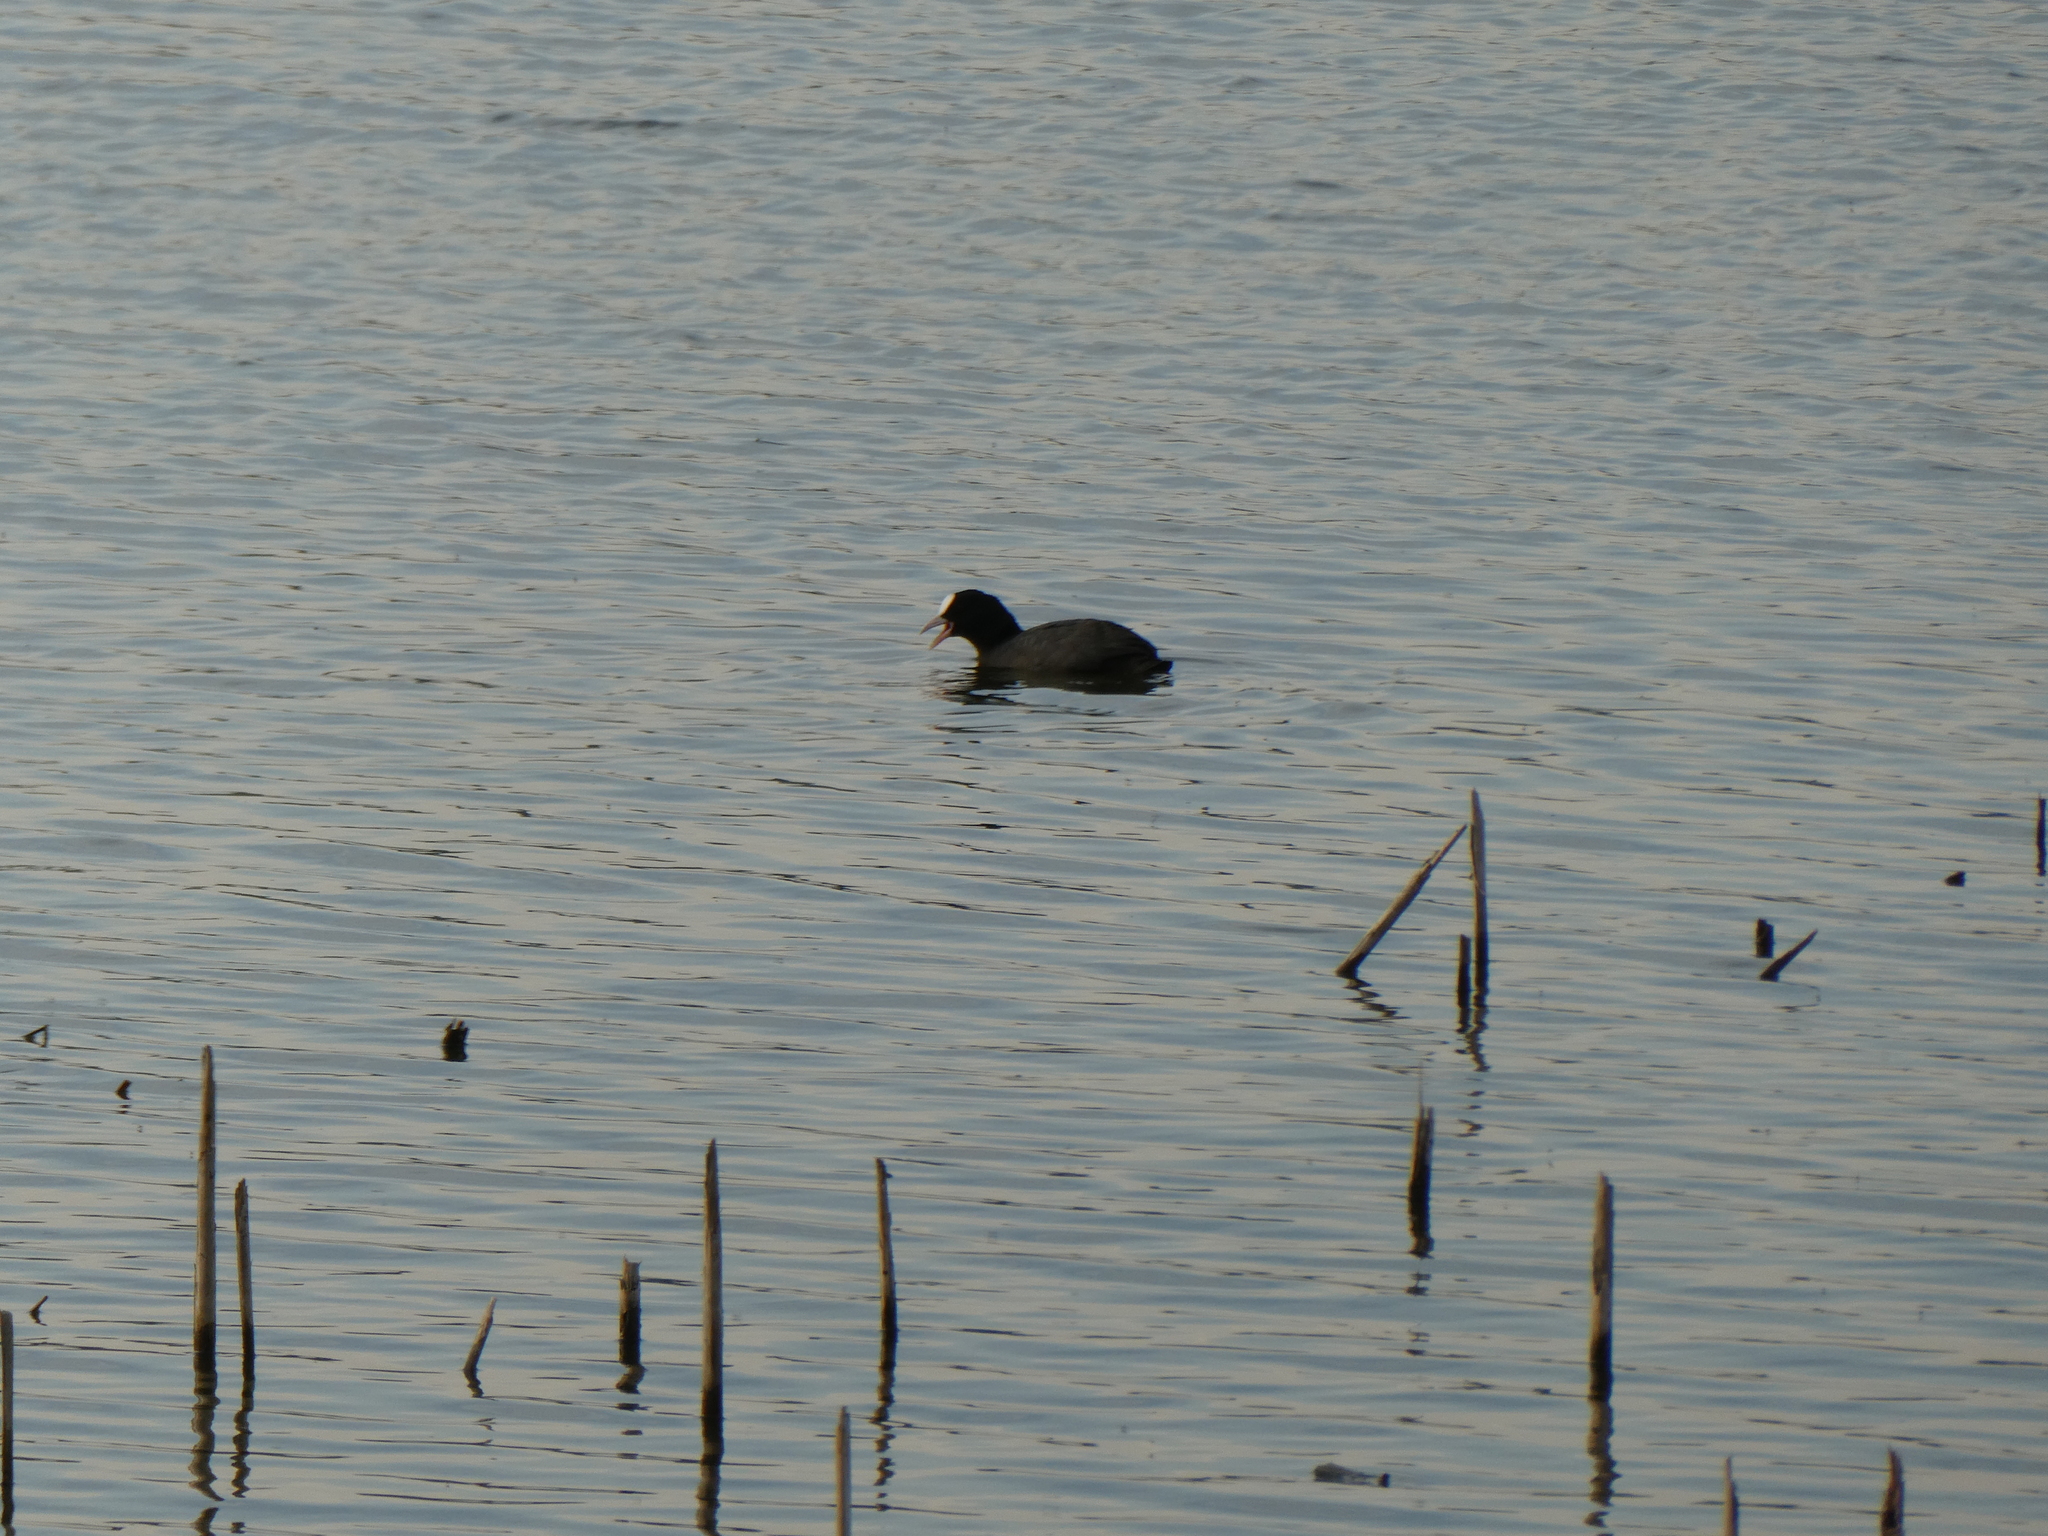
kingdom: Animalia
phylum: Chordata
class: Aves
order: Gruiformes
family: Rallidae
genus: Fulica
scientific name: Fulica atra
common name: Eurasian coot
